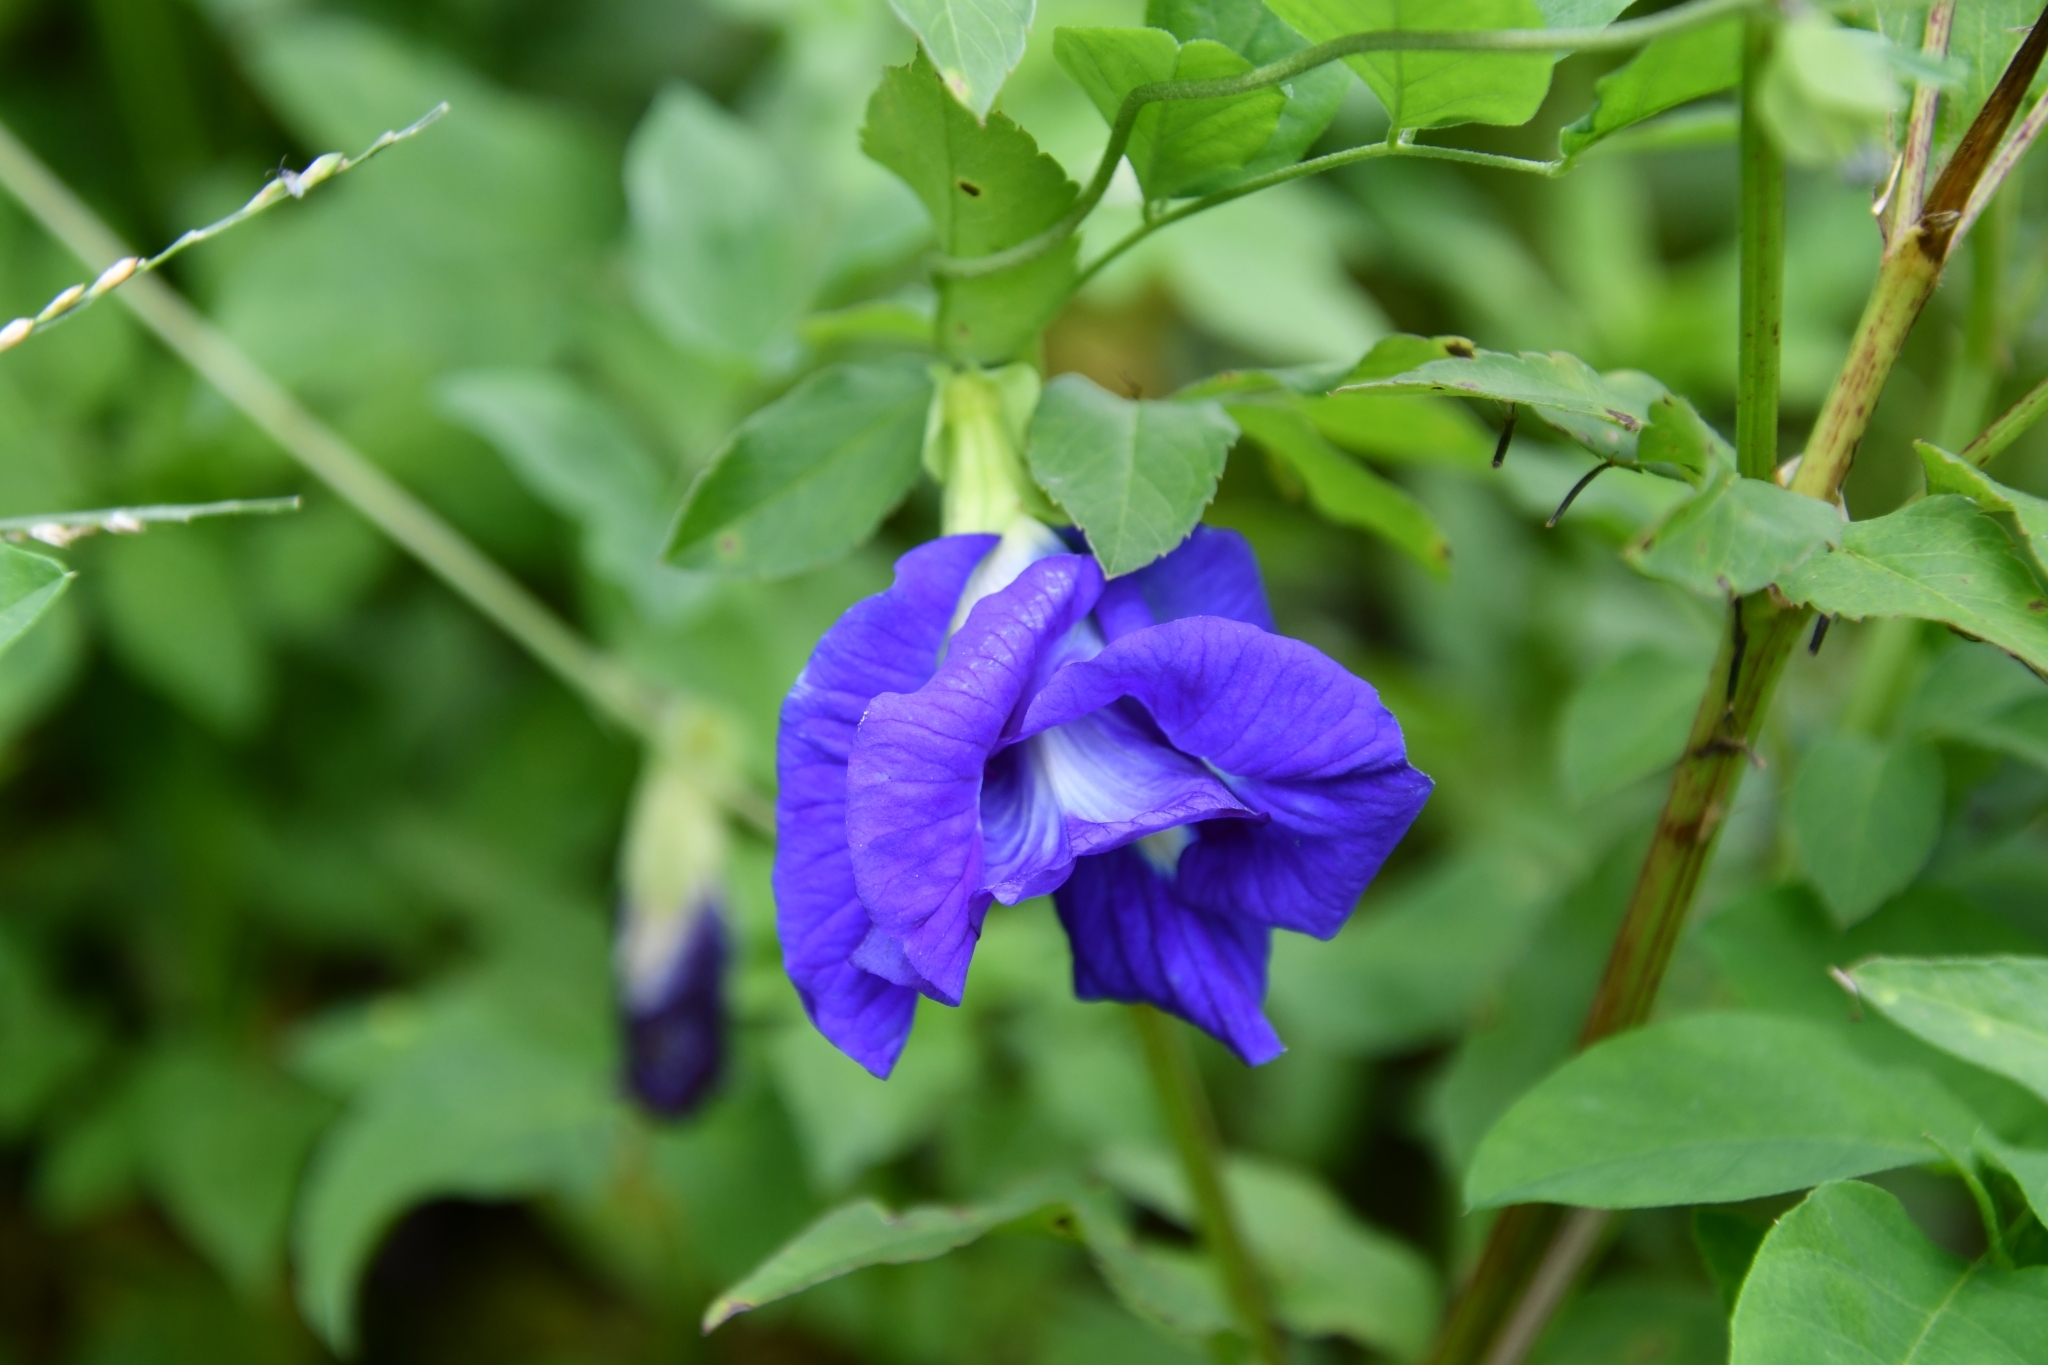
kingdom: Plantae
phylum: Tracheophyta
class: Magnoliopsida
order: Fabales
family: Fabaceae
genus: Clitoria
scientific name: Clitoria ternatea
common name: Asian pigeonwings
